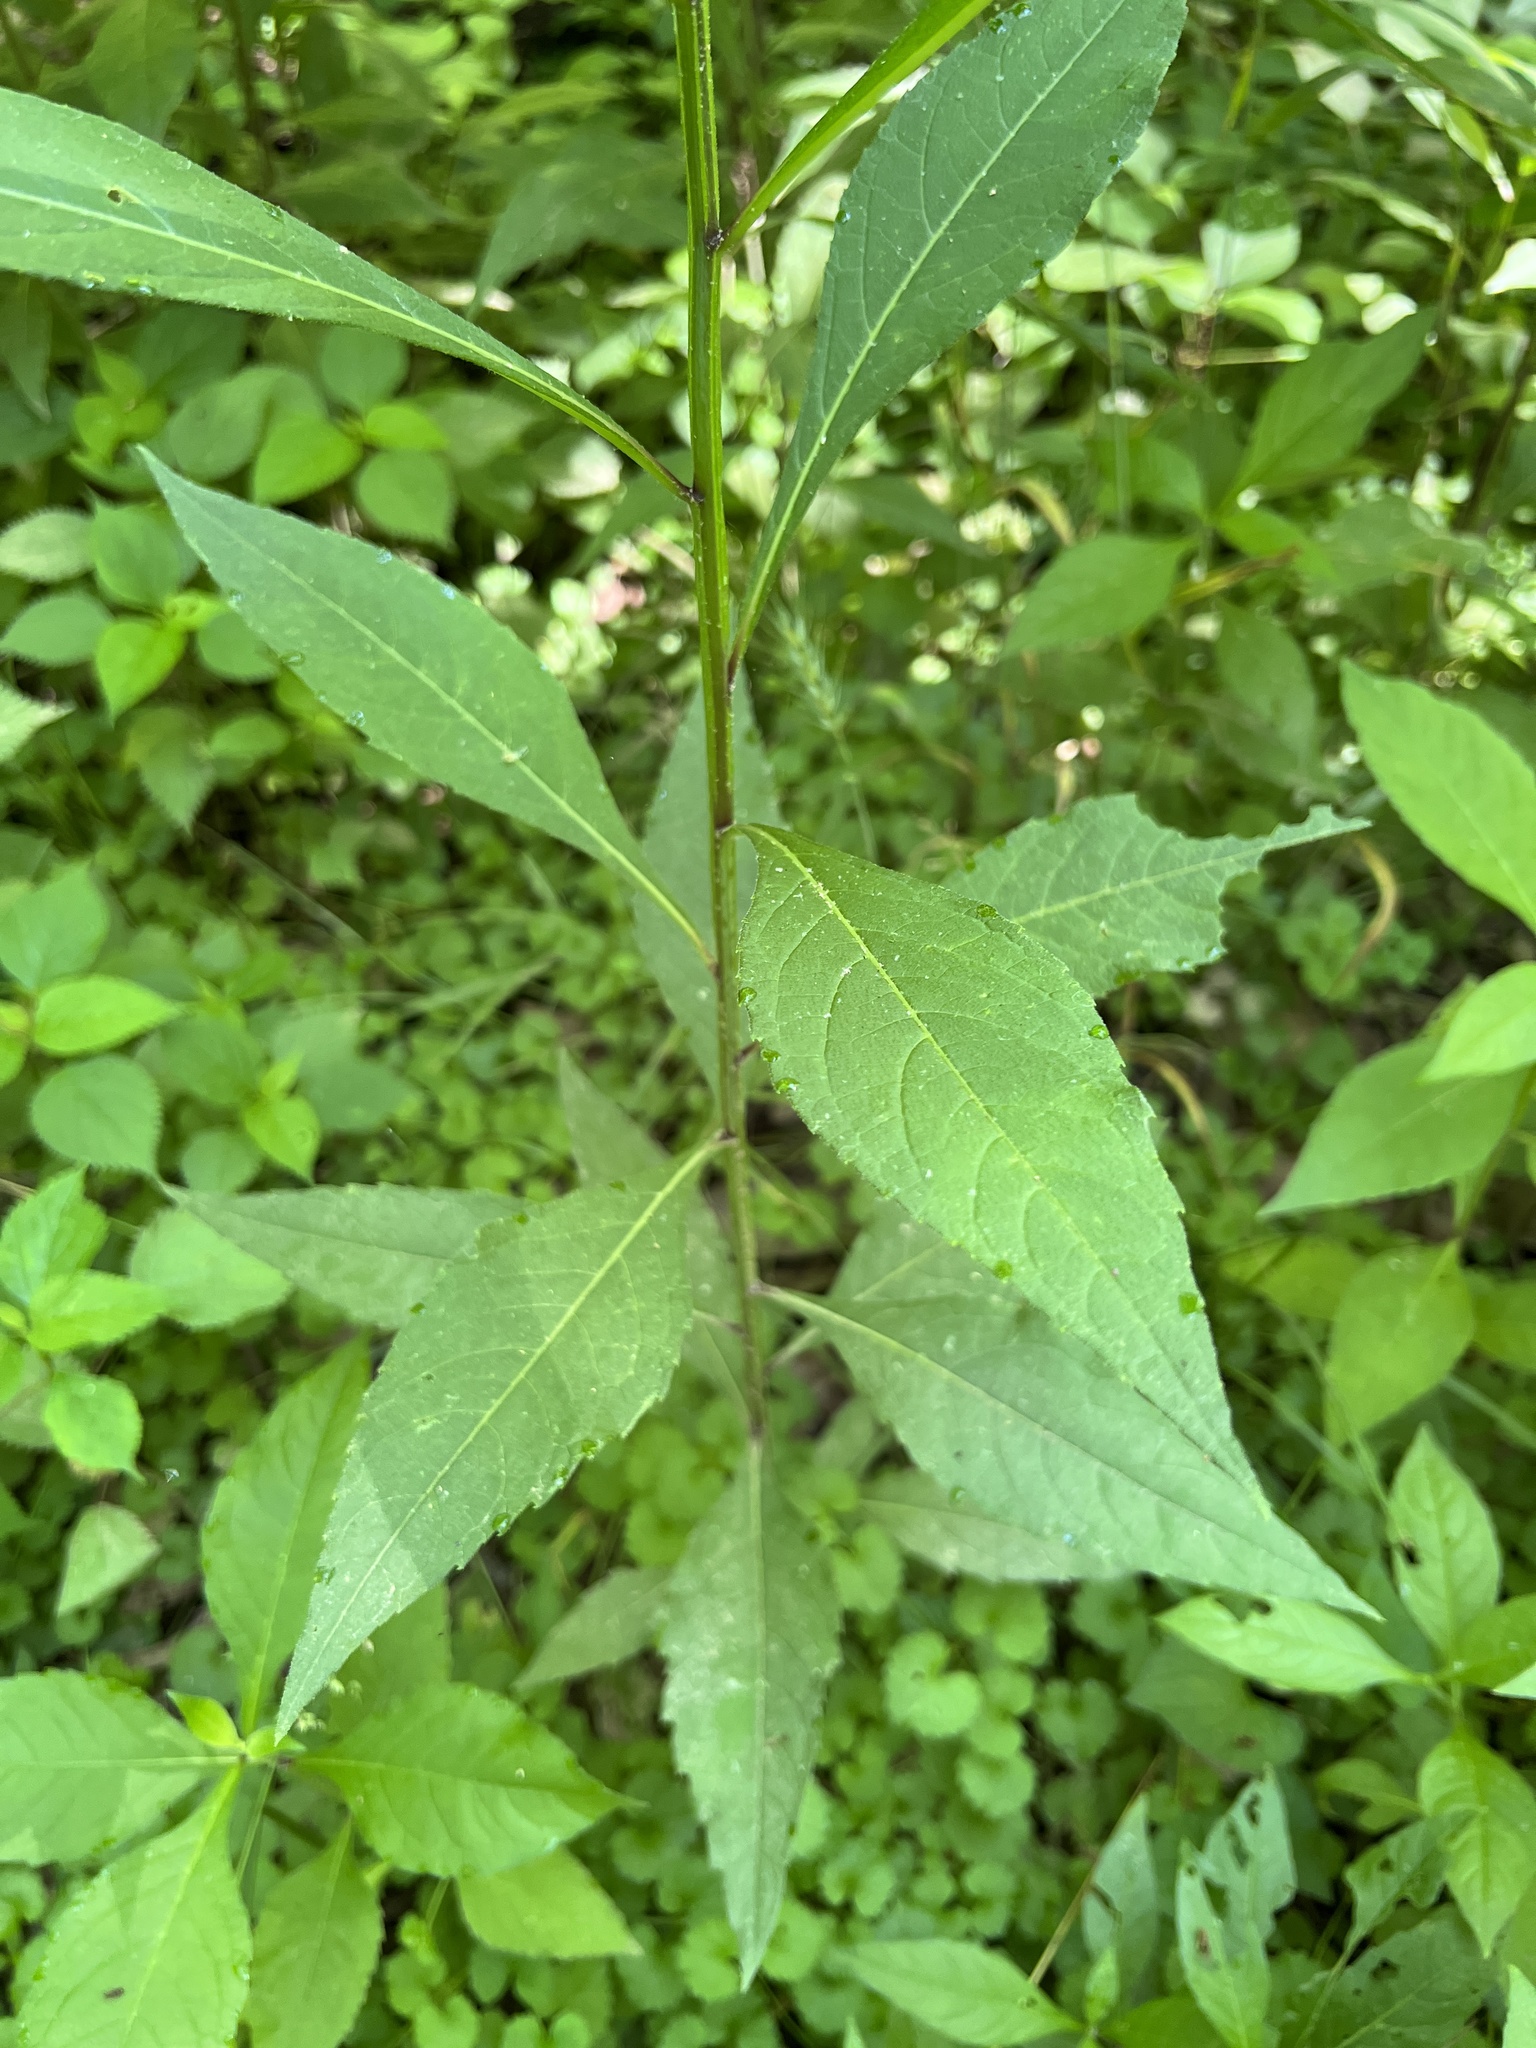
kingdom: Plantae
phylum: Tracheophyta
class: Magnoliopsida
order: Asterales
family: Asteraceae
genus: Verbesina
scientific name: Verbesina alternifolia
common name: Wingstem
